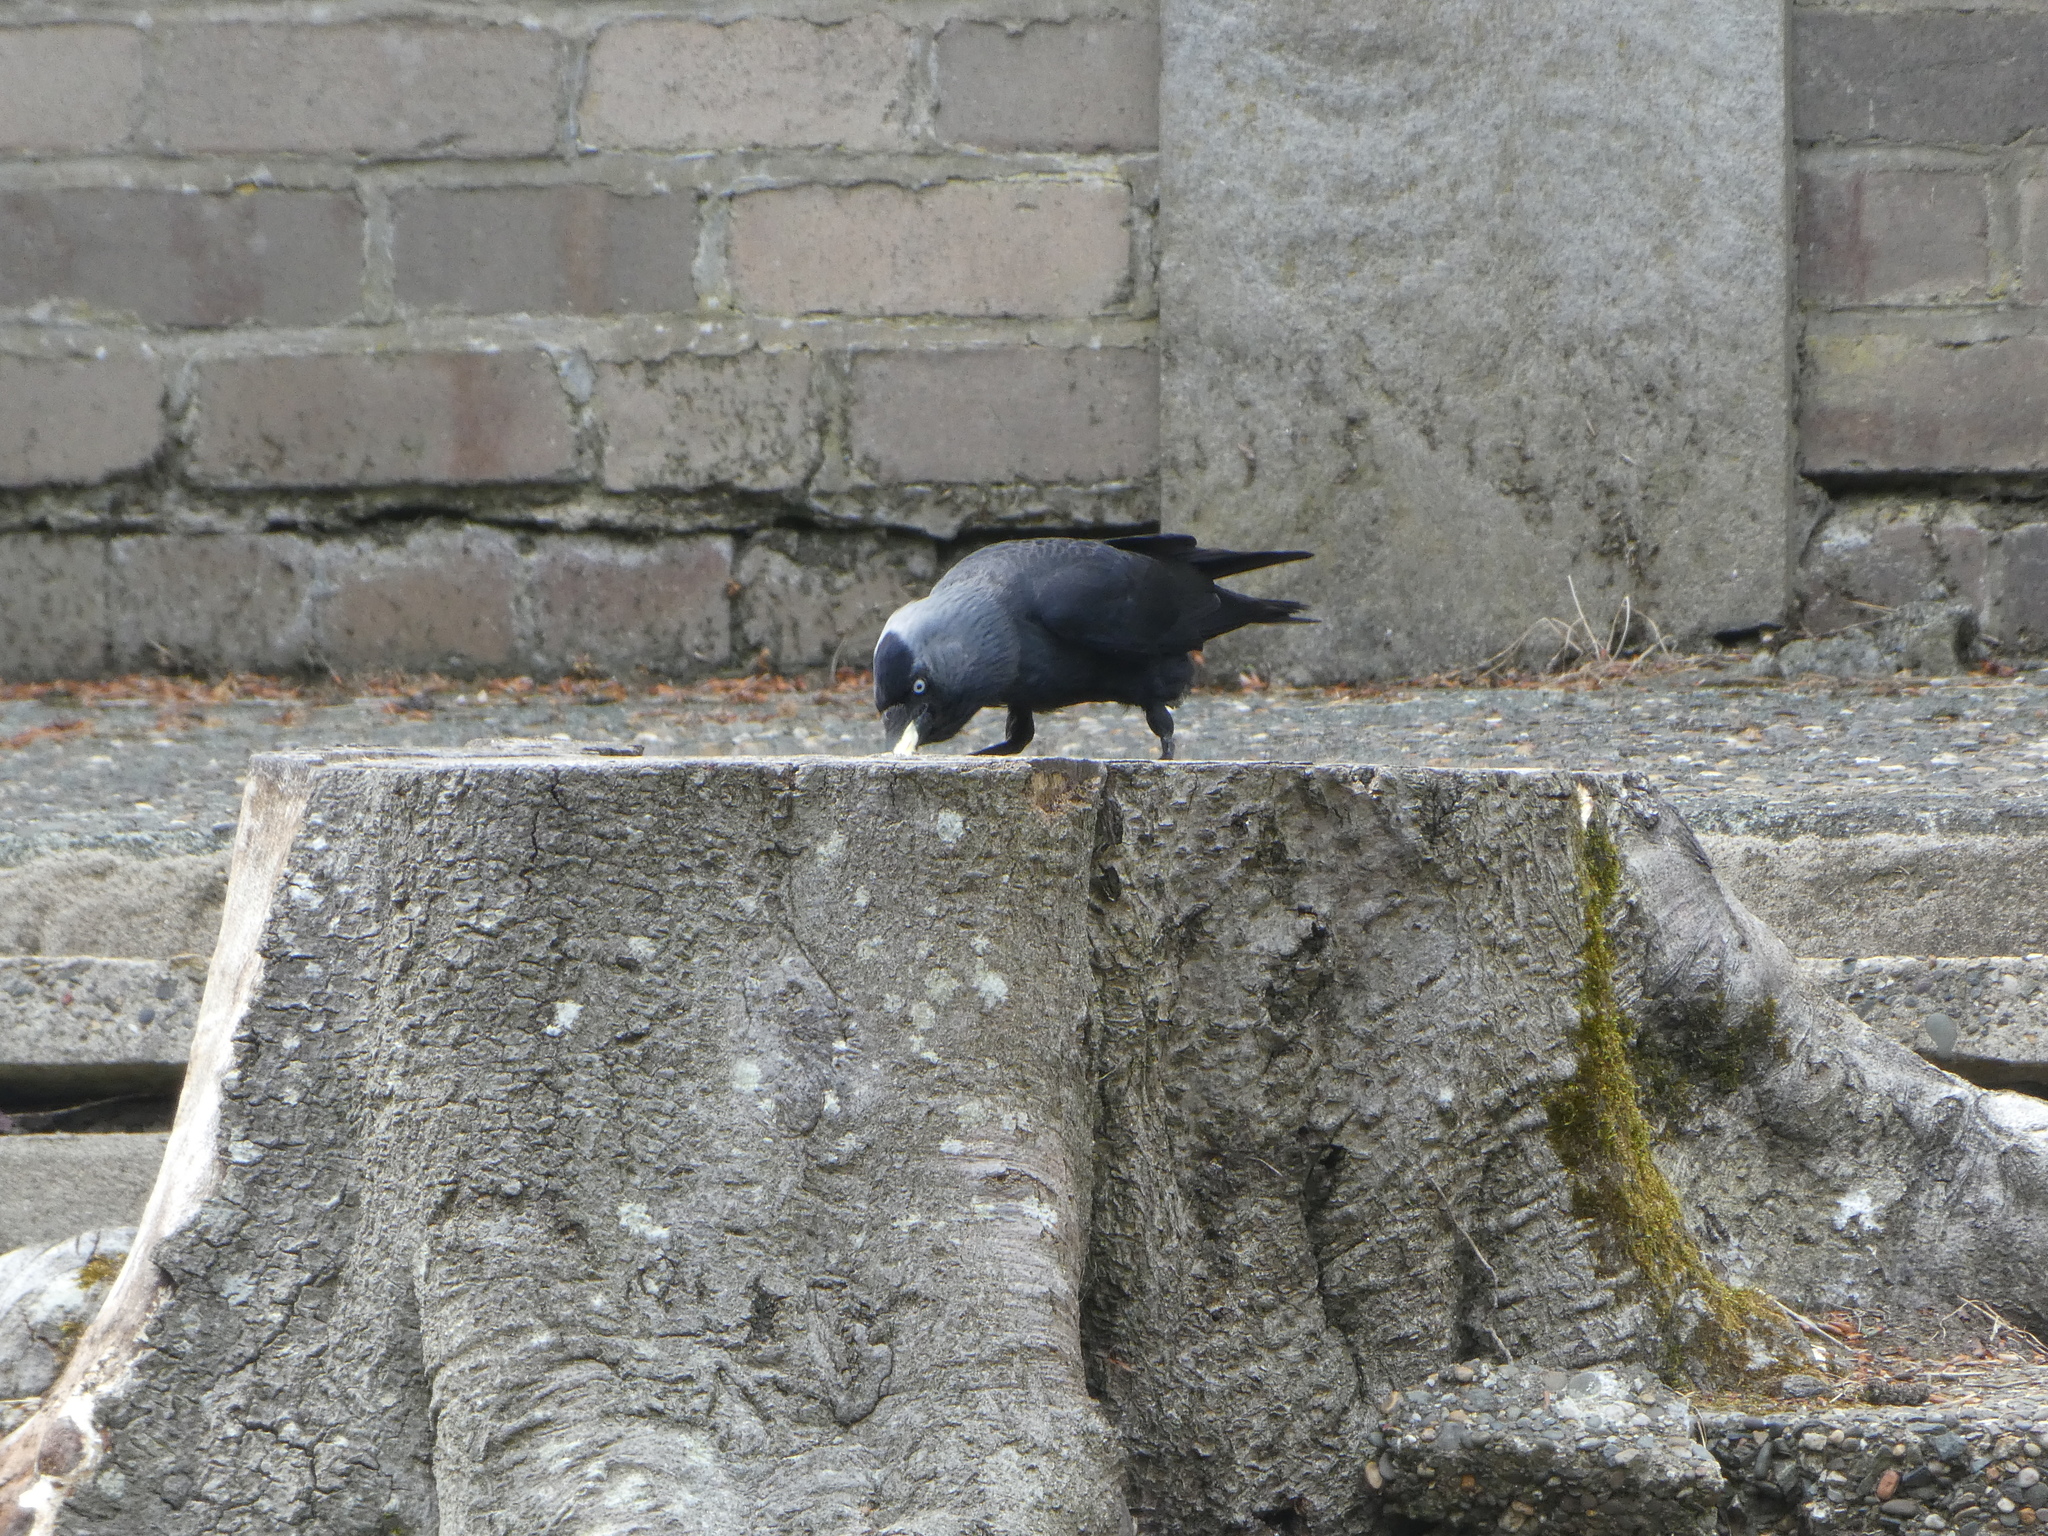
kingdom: Animalia
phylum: Chordata
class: Aves
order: Passeriformes
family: Corvidae
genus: Coloeus
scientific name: Coloeus monedula
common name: Western jackdaw
